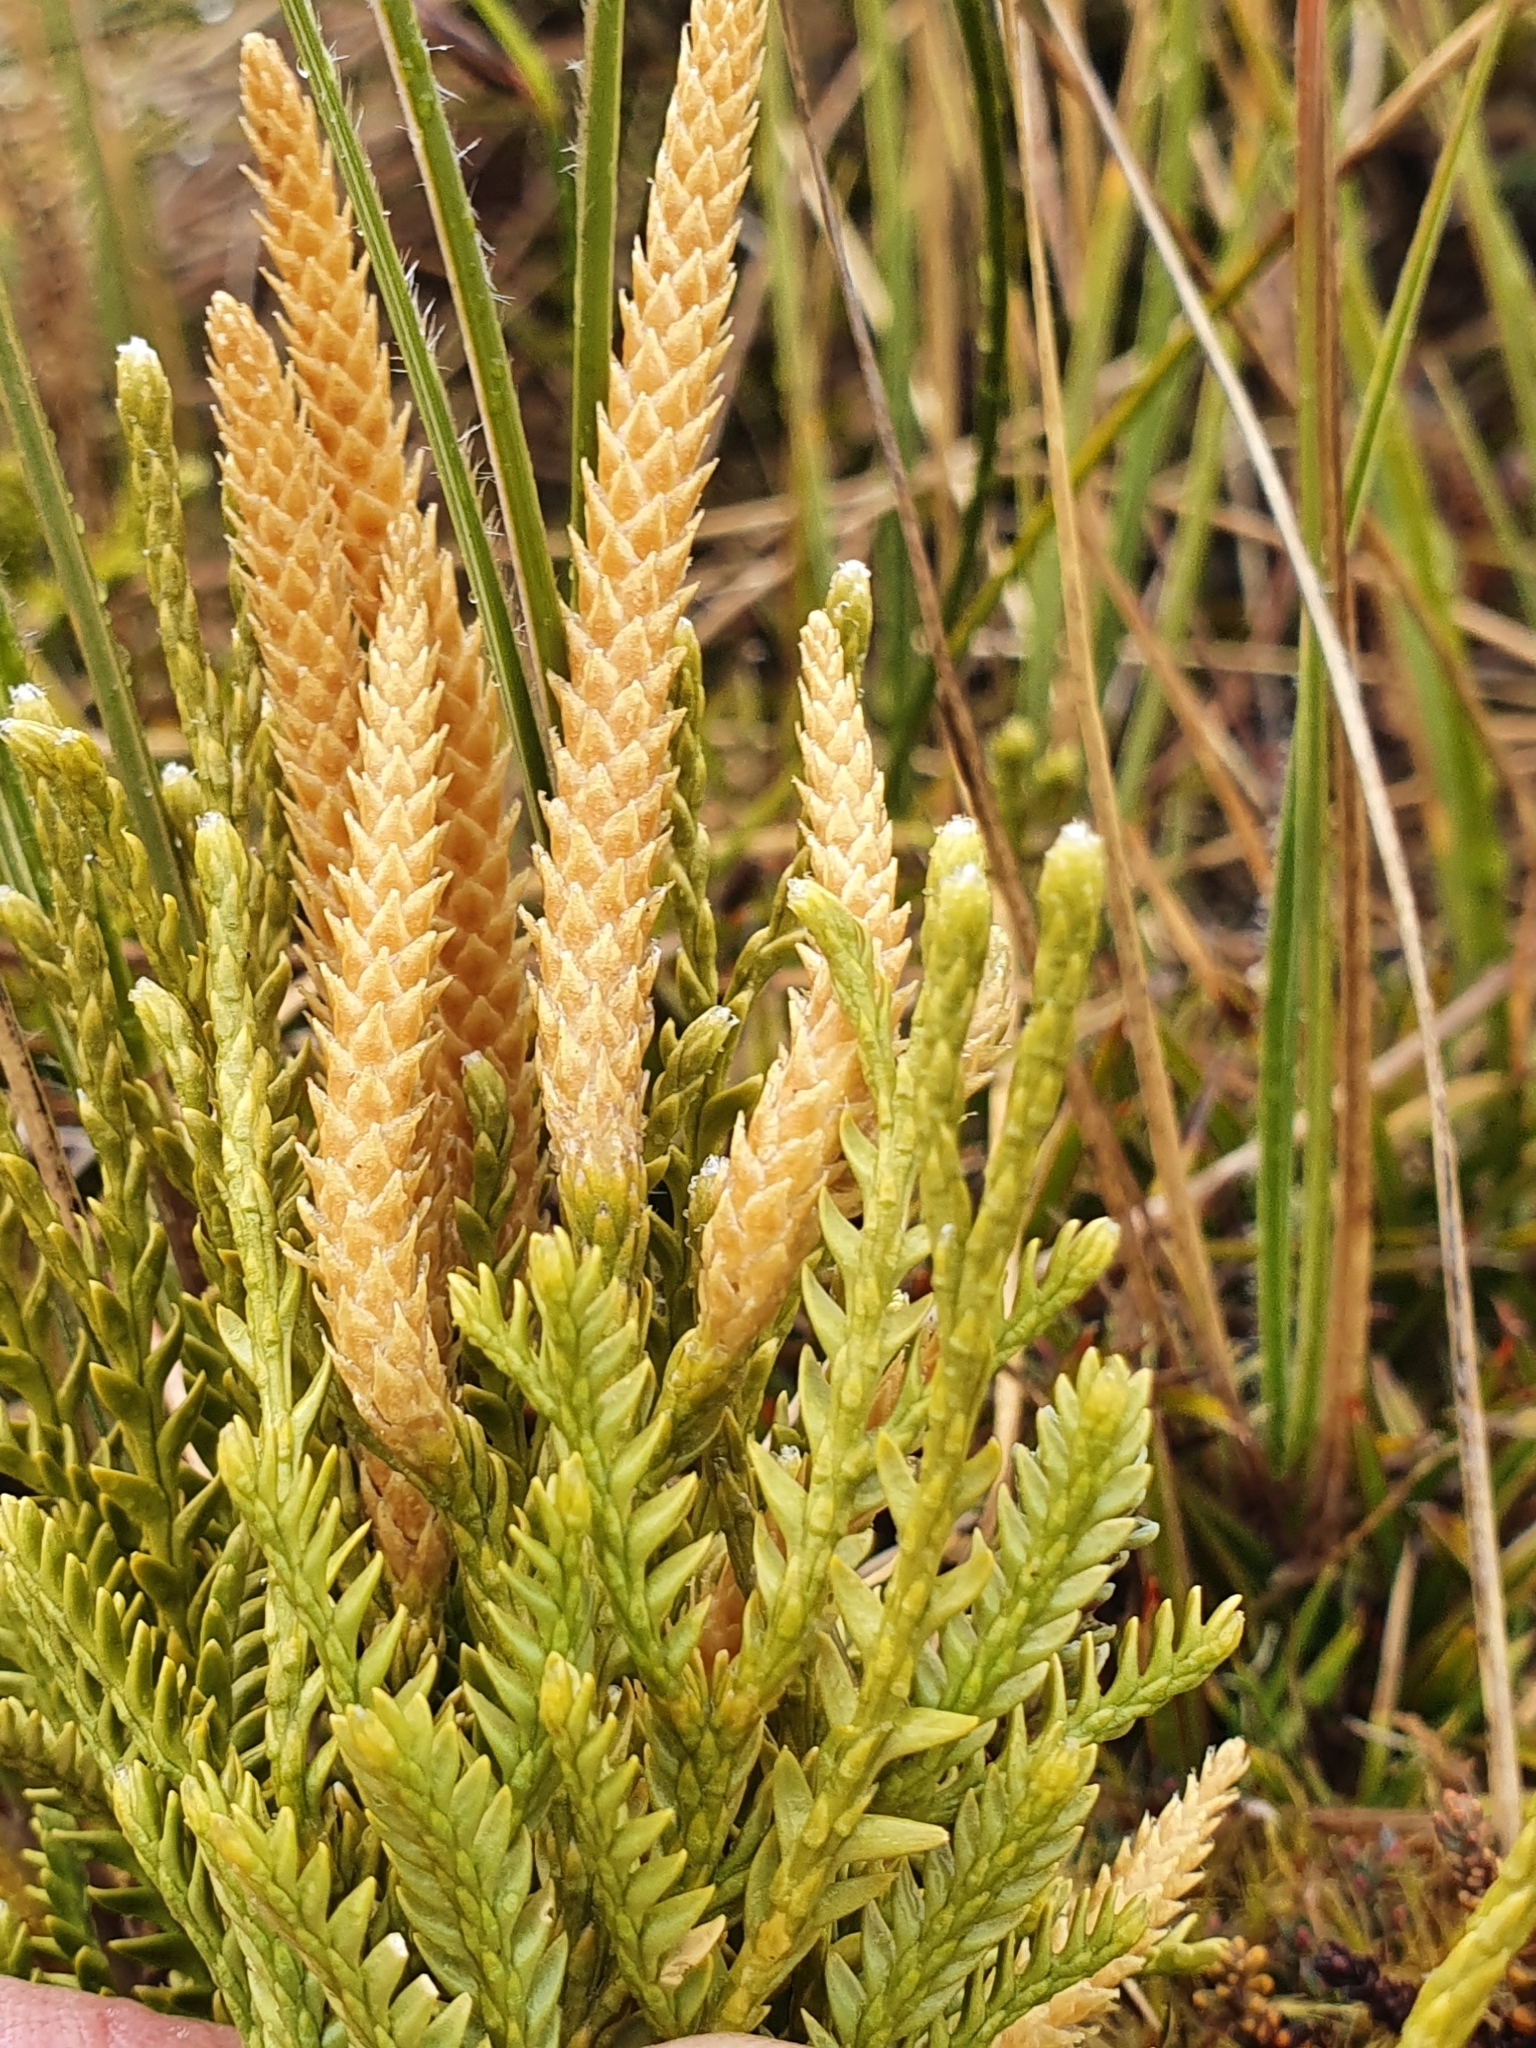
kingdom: Plantae
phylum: Tracheophyta
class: Lycopodiopsida
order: Lycopodiales
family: Lycopodiaceae
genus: Diphasium
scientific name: Diphasium scariosum
